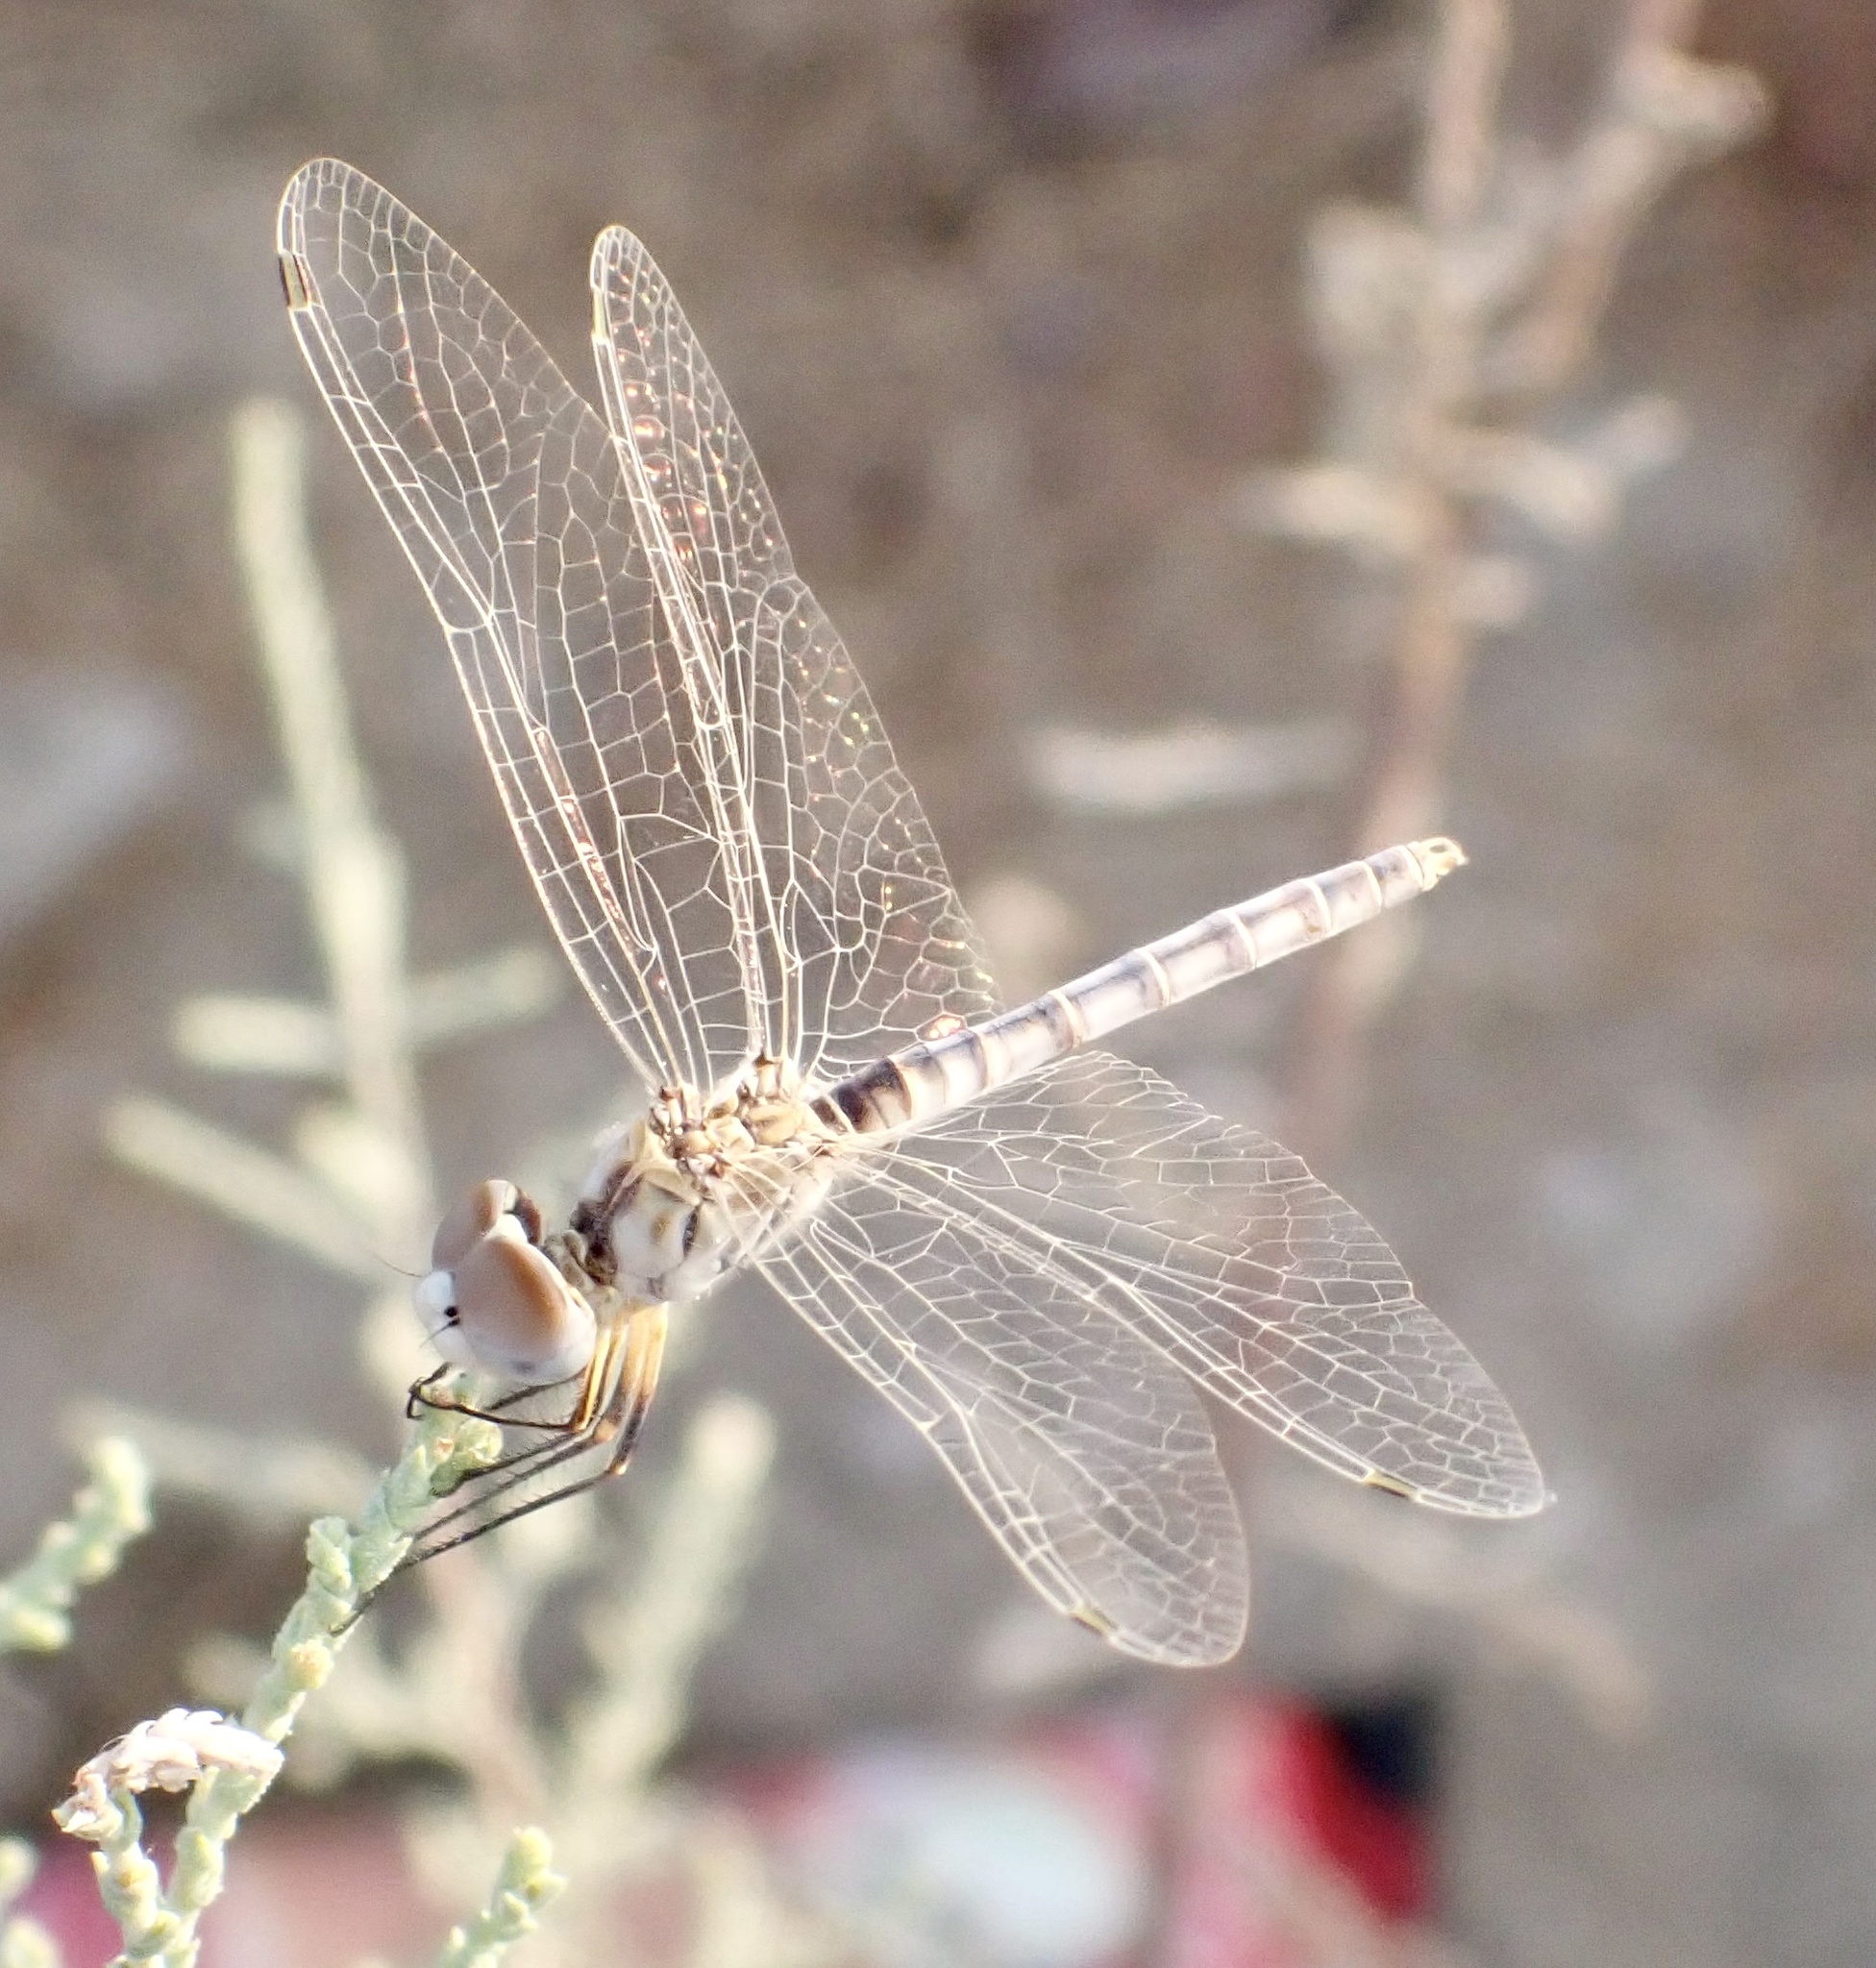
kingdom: Animalia
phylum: Arthropoda
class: Insecta
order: Odonata
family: Libellulidae
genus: Selysiothemis
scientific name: Selysiothemis nigra
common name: Black pennant
